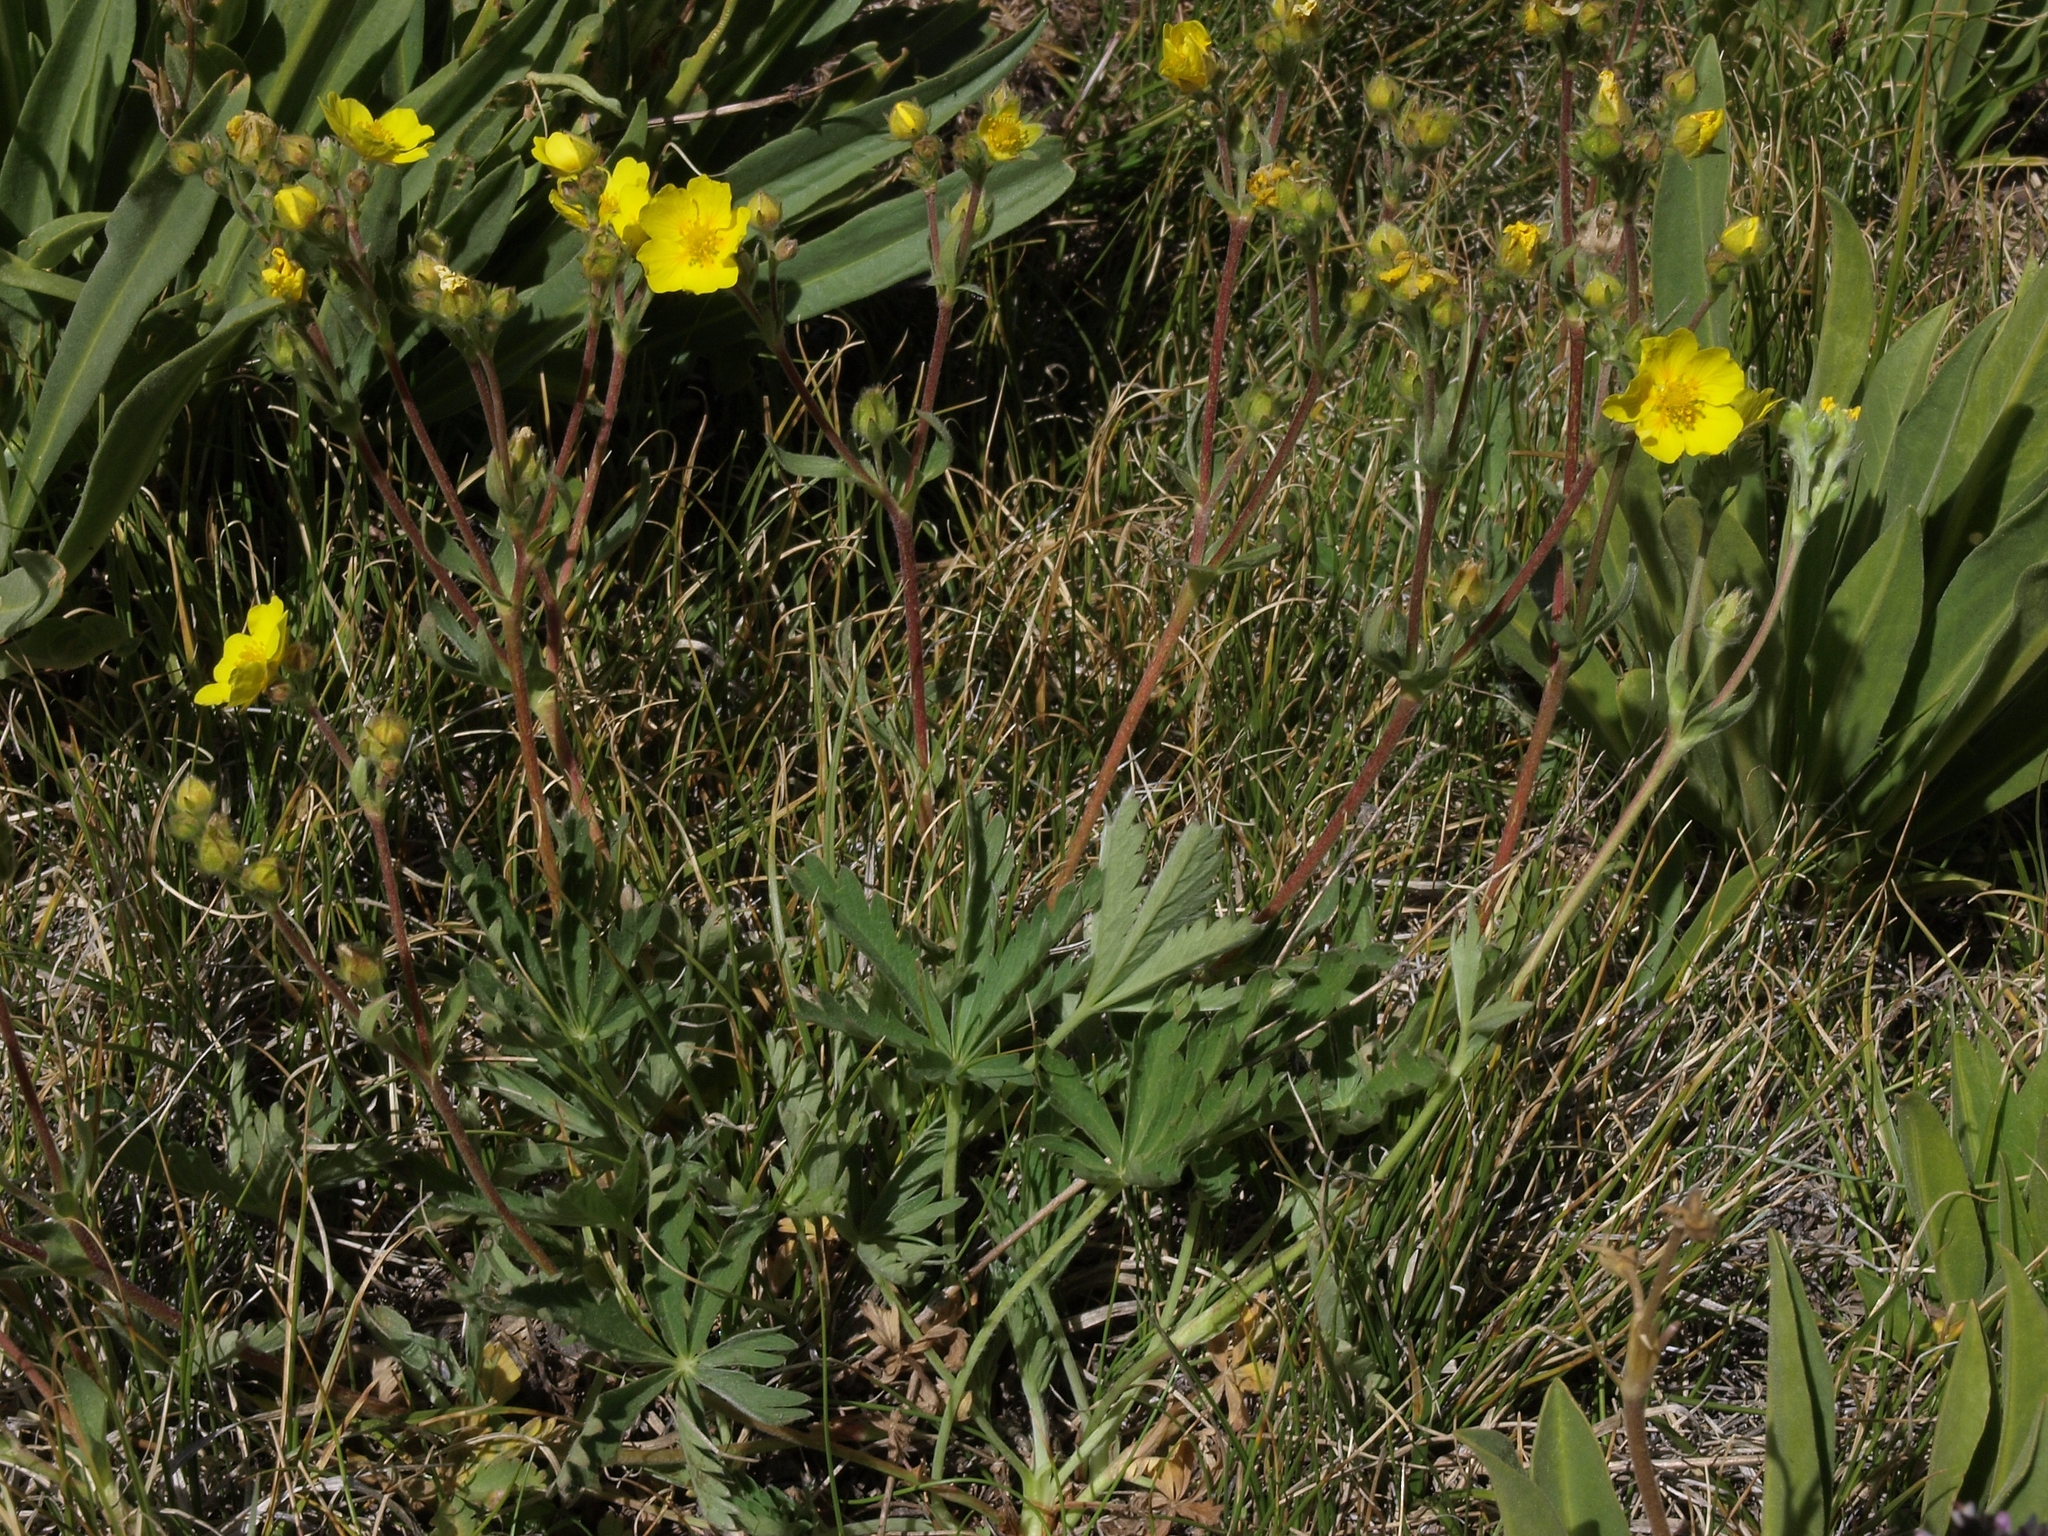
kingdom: Plantae
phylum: Tracheophyta
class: Magnoliopsida
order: Rosales
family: Rosaceae
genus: Potentilla
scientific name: Potentilla gracilis
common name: Graceful cinquefoil
